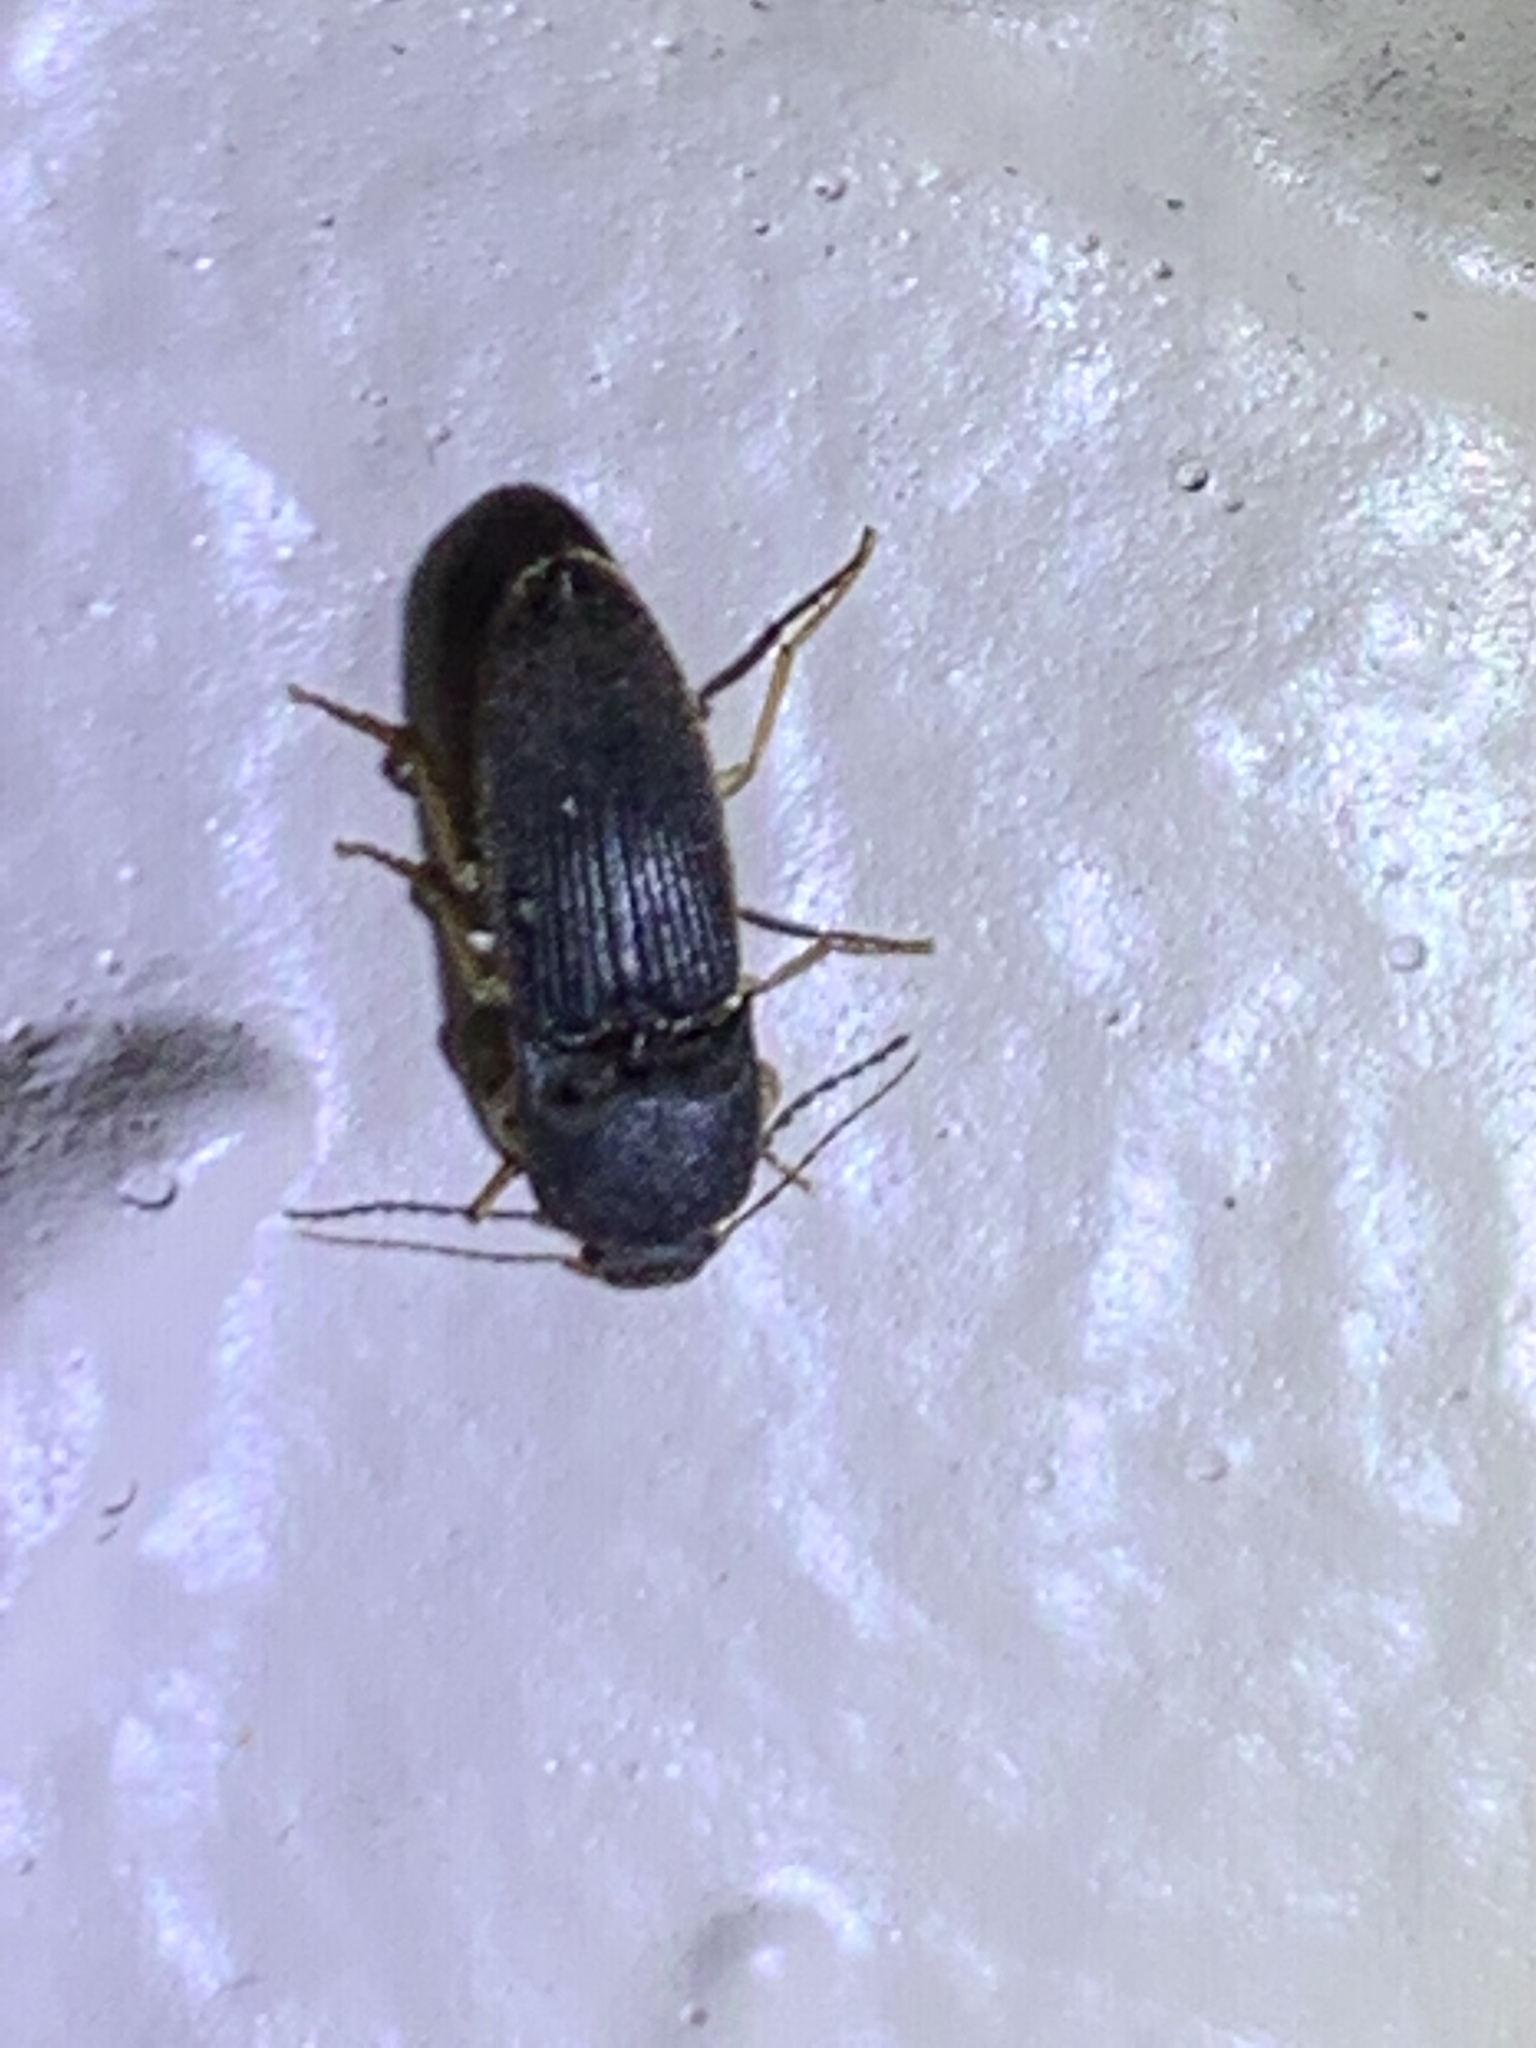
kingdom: Animalia
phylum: Arthropoda
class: Insecta
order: Coleoptera
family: Elateridae
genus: Heteroderes
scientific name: Heteroderes amplicollis
